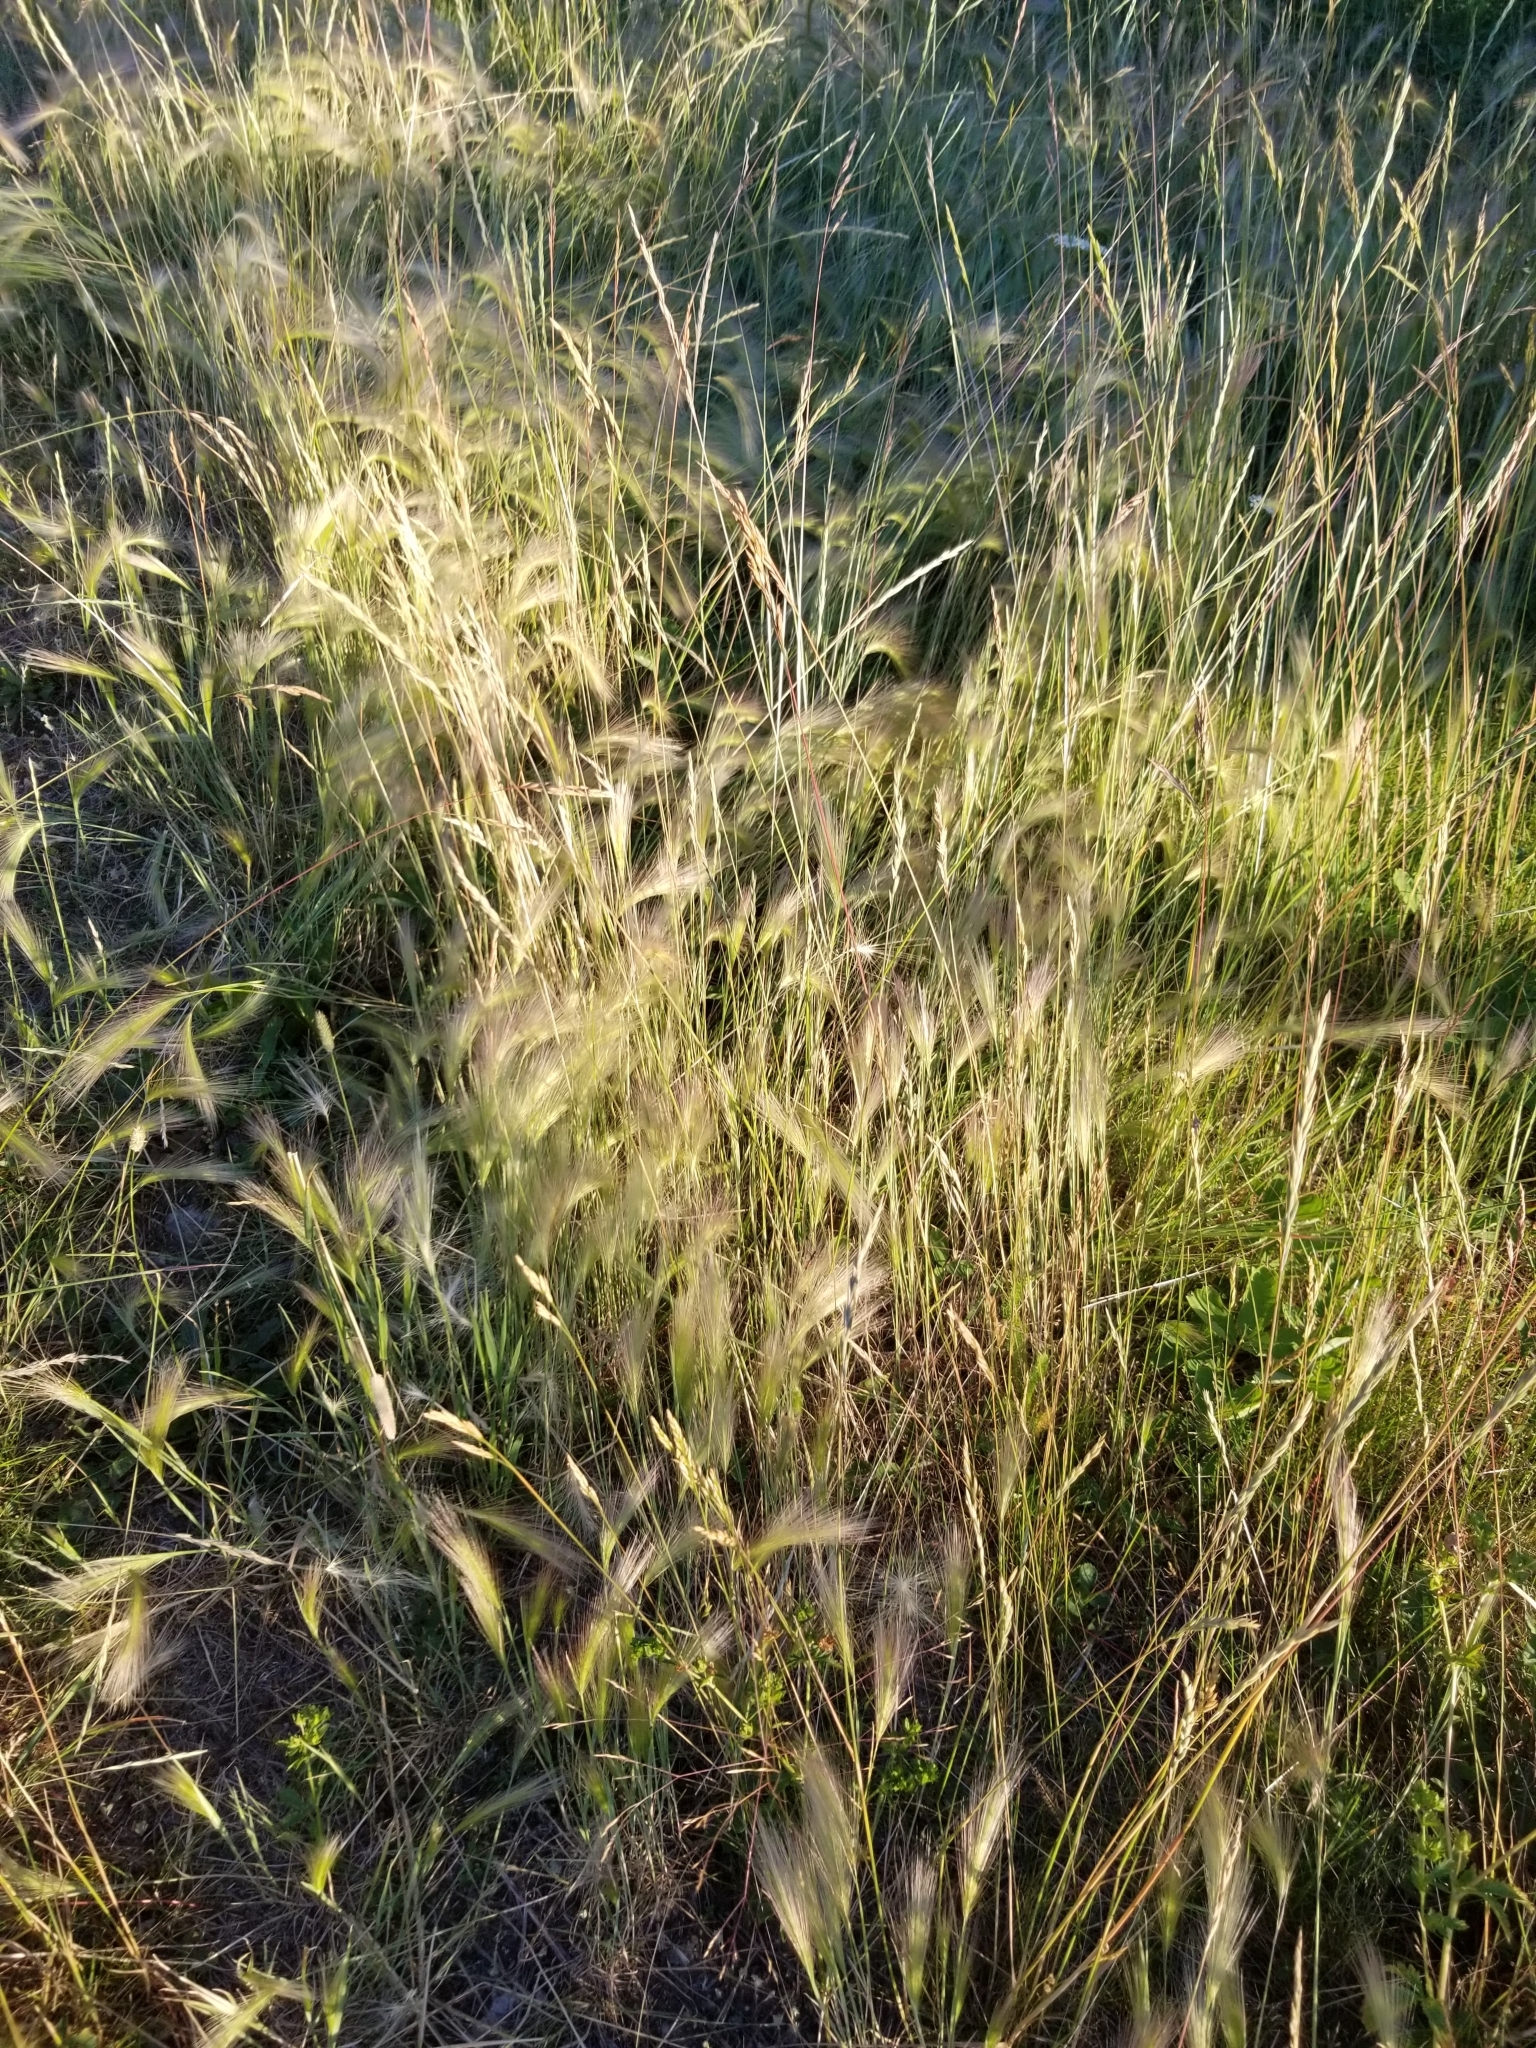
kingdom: Plantae
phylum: Tracheophyta
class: Liliopsida
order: Poales
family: Poaceae
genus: Hordeum
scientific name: Hordeum jubatum
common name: Foxtail barley
